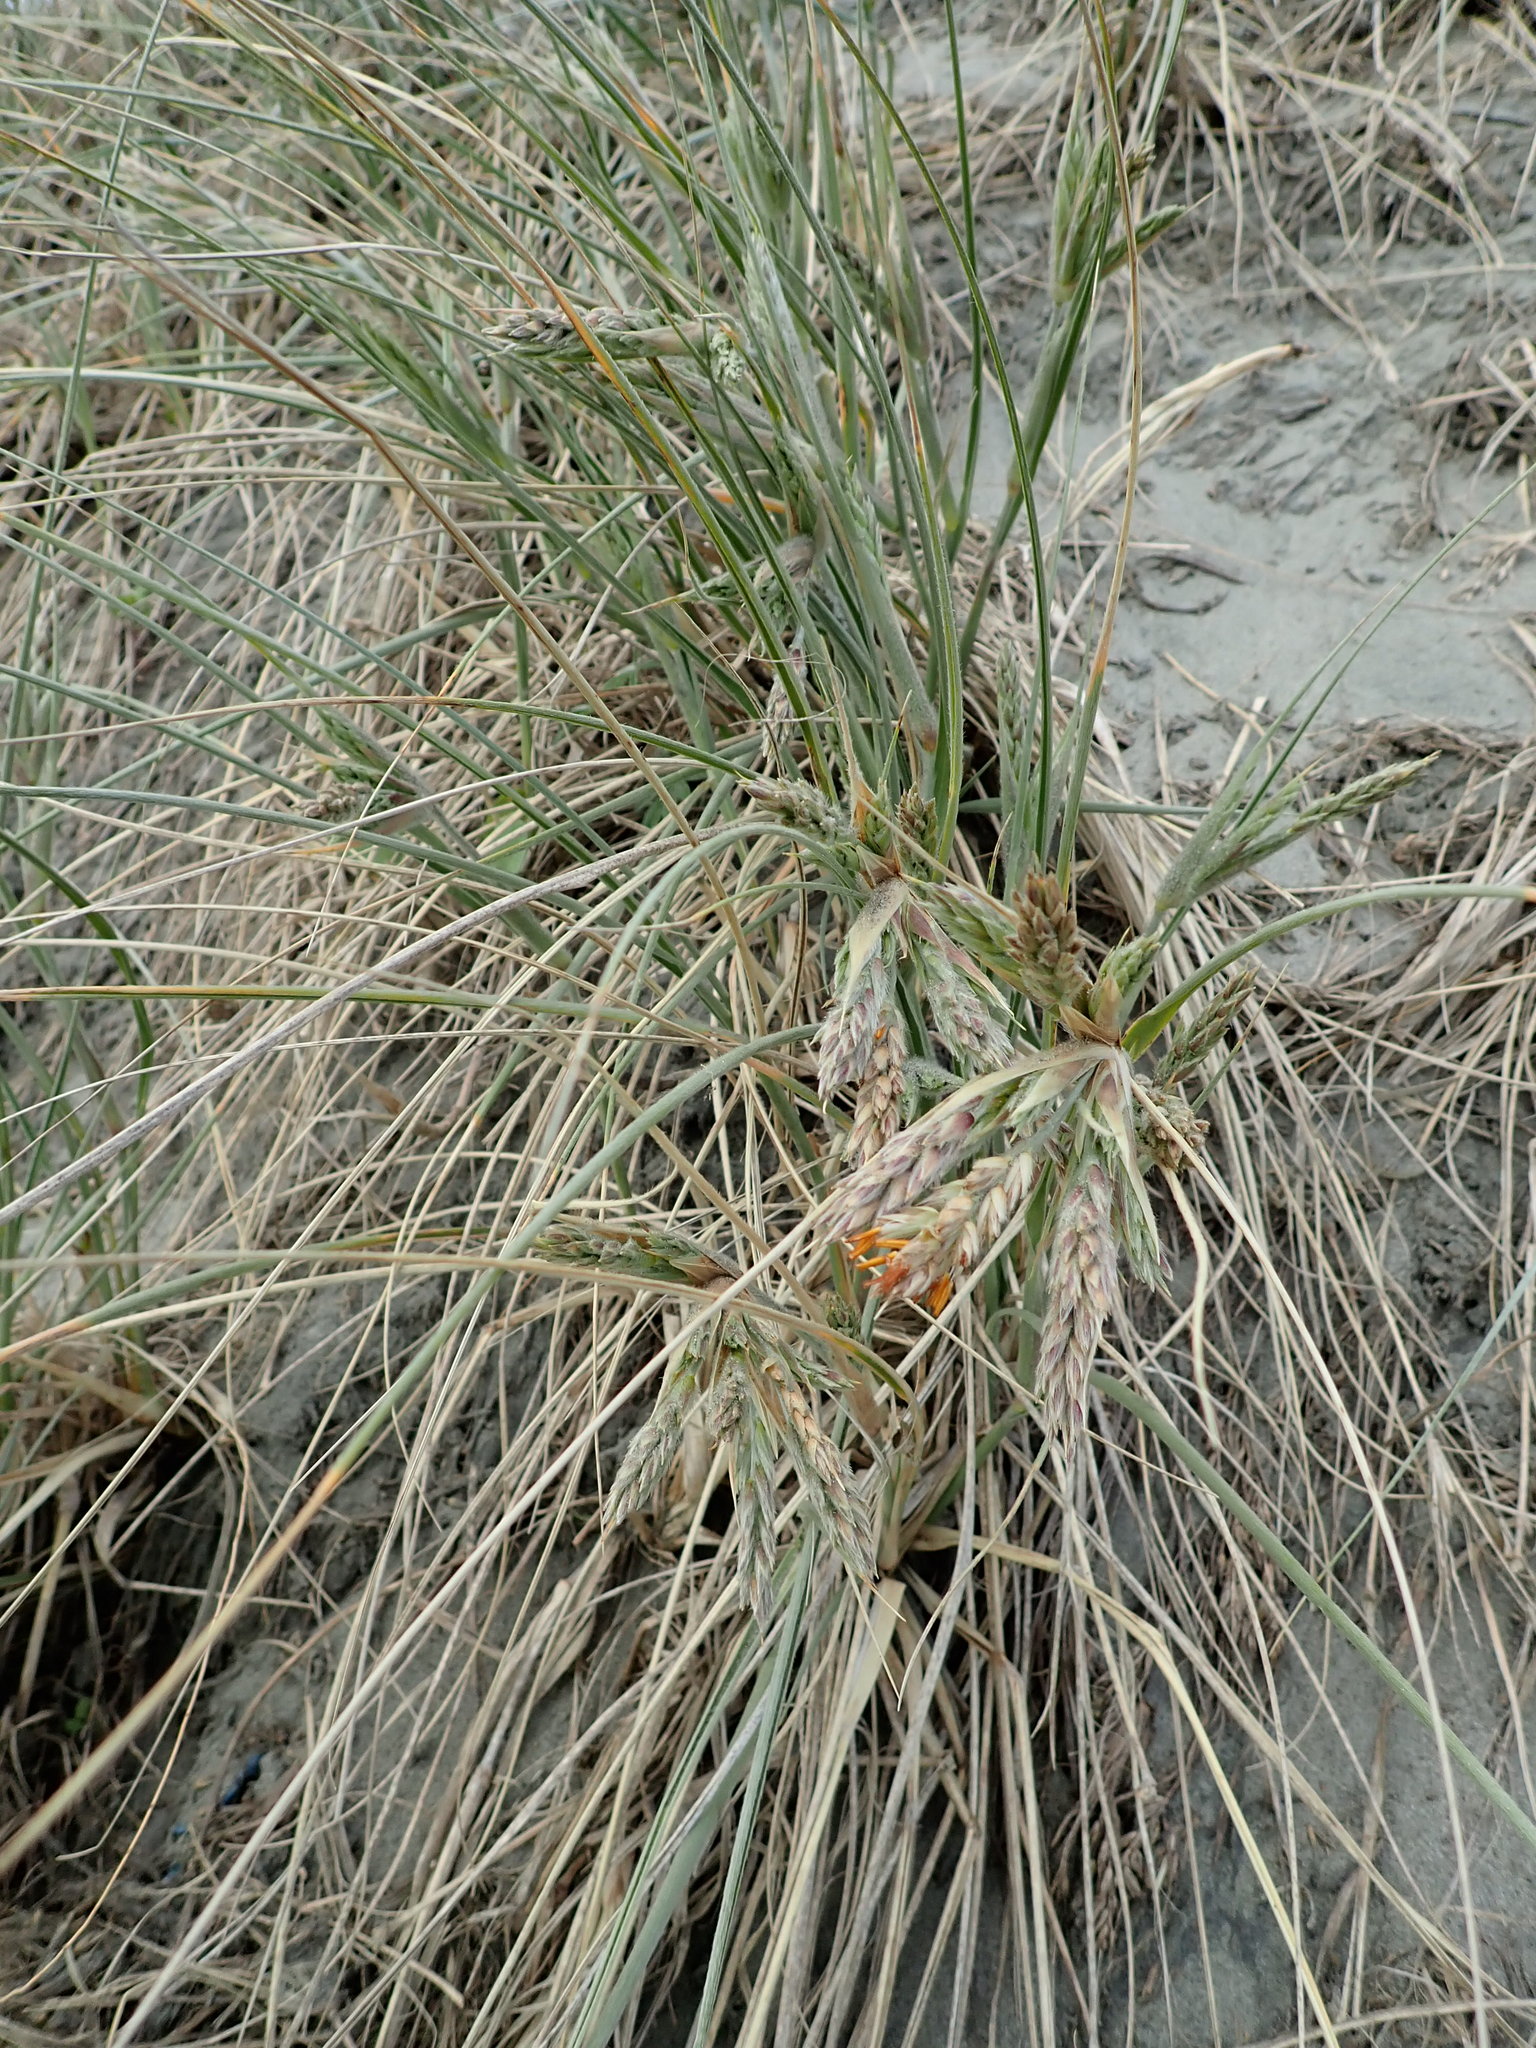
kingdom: Plantae
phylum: Tracheophyta
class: Liliopsida
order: Poales
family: Poaceae
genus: Spinifex
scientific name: Spinifex sericeus
